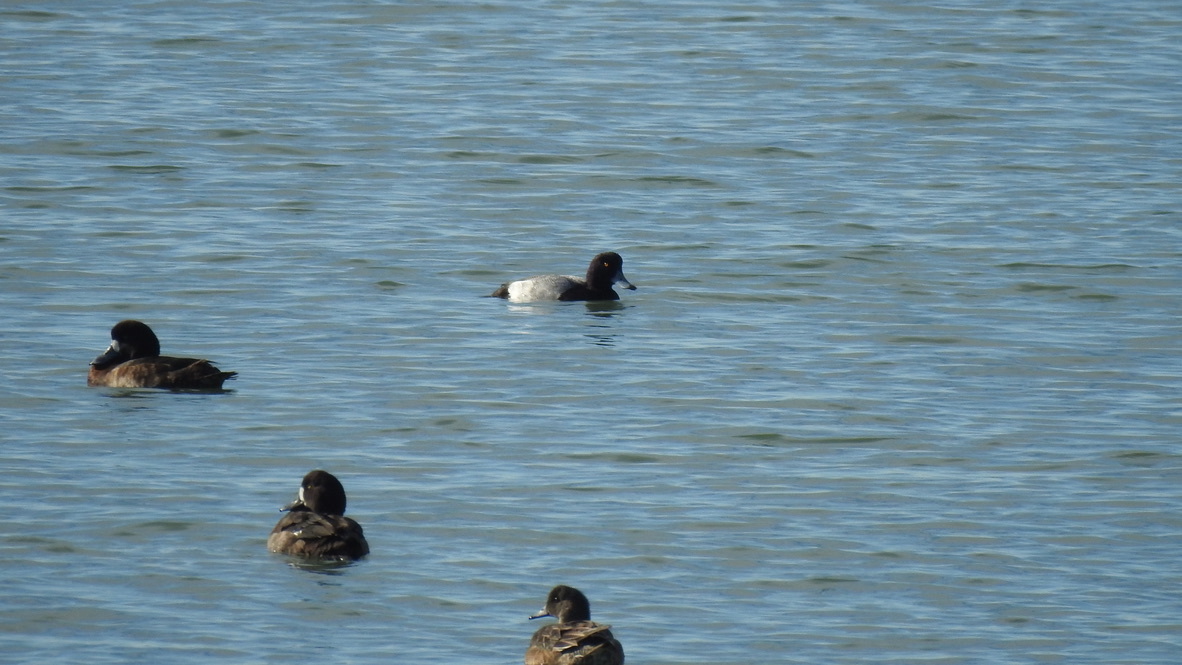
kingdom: Animalia
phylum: Chordata
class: Aves
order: Anseriformes
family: Anatidae
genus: Aythya
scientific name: Aythya marila
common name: Greater scaup
